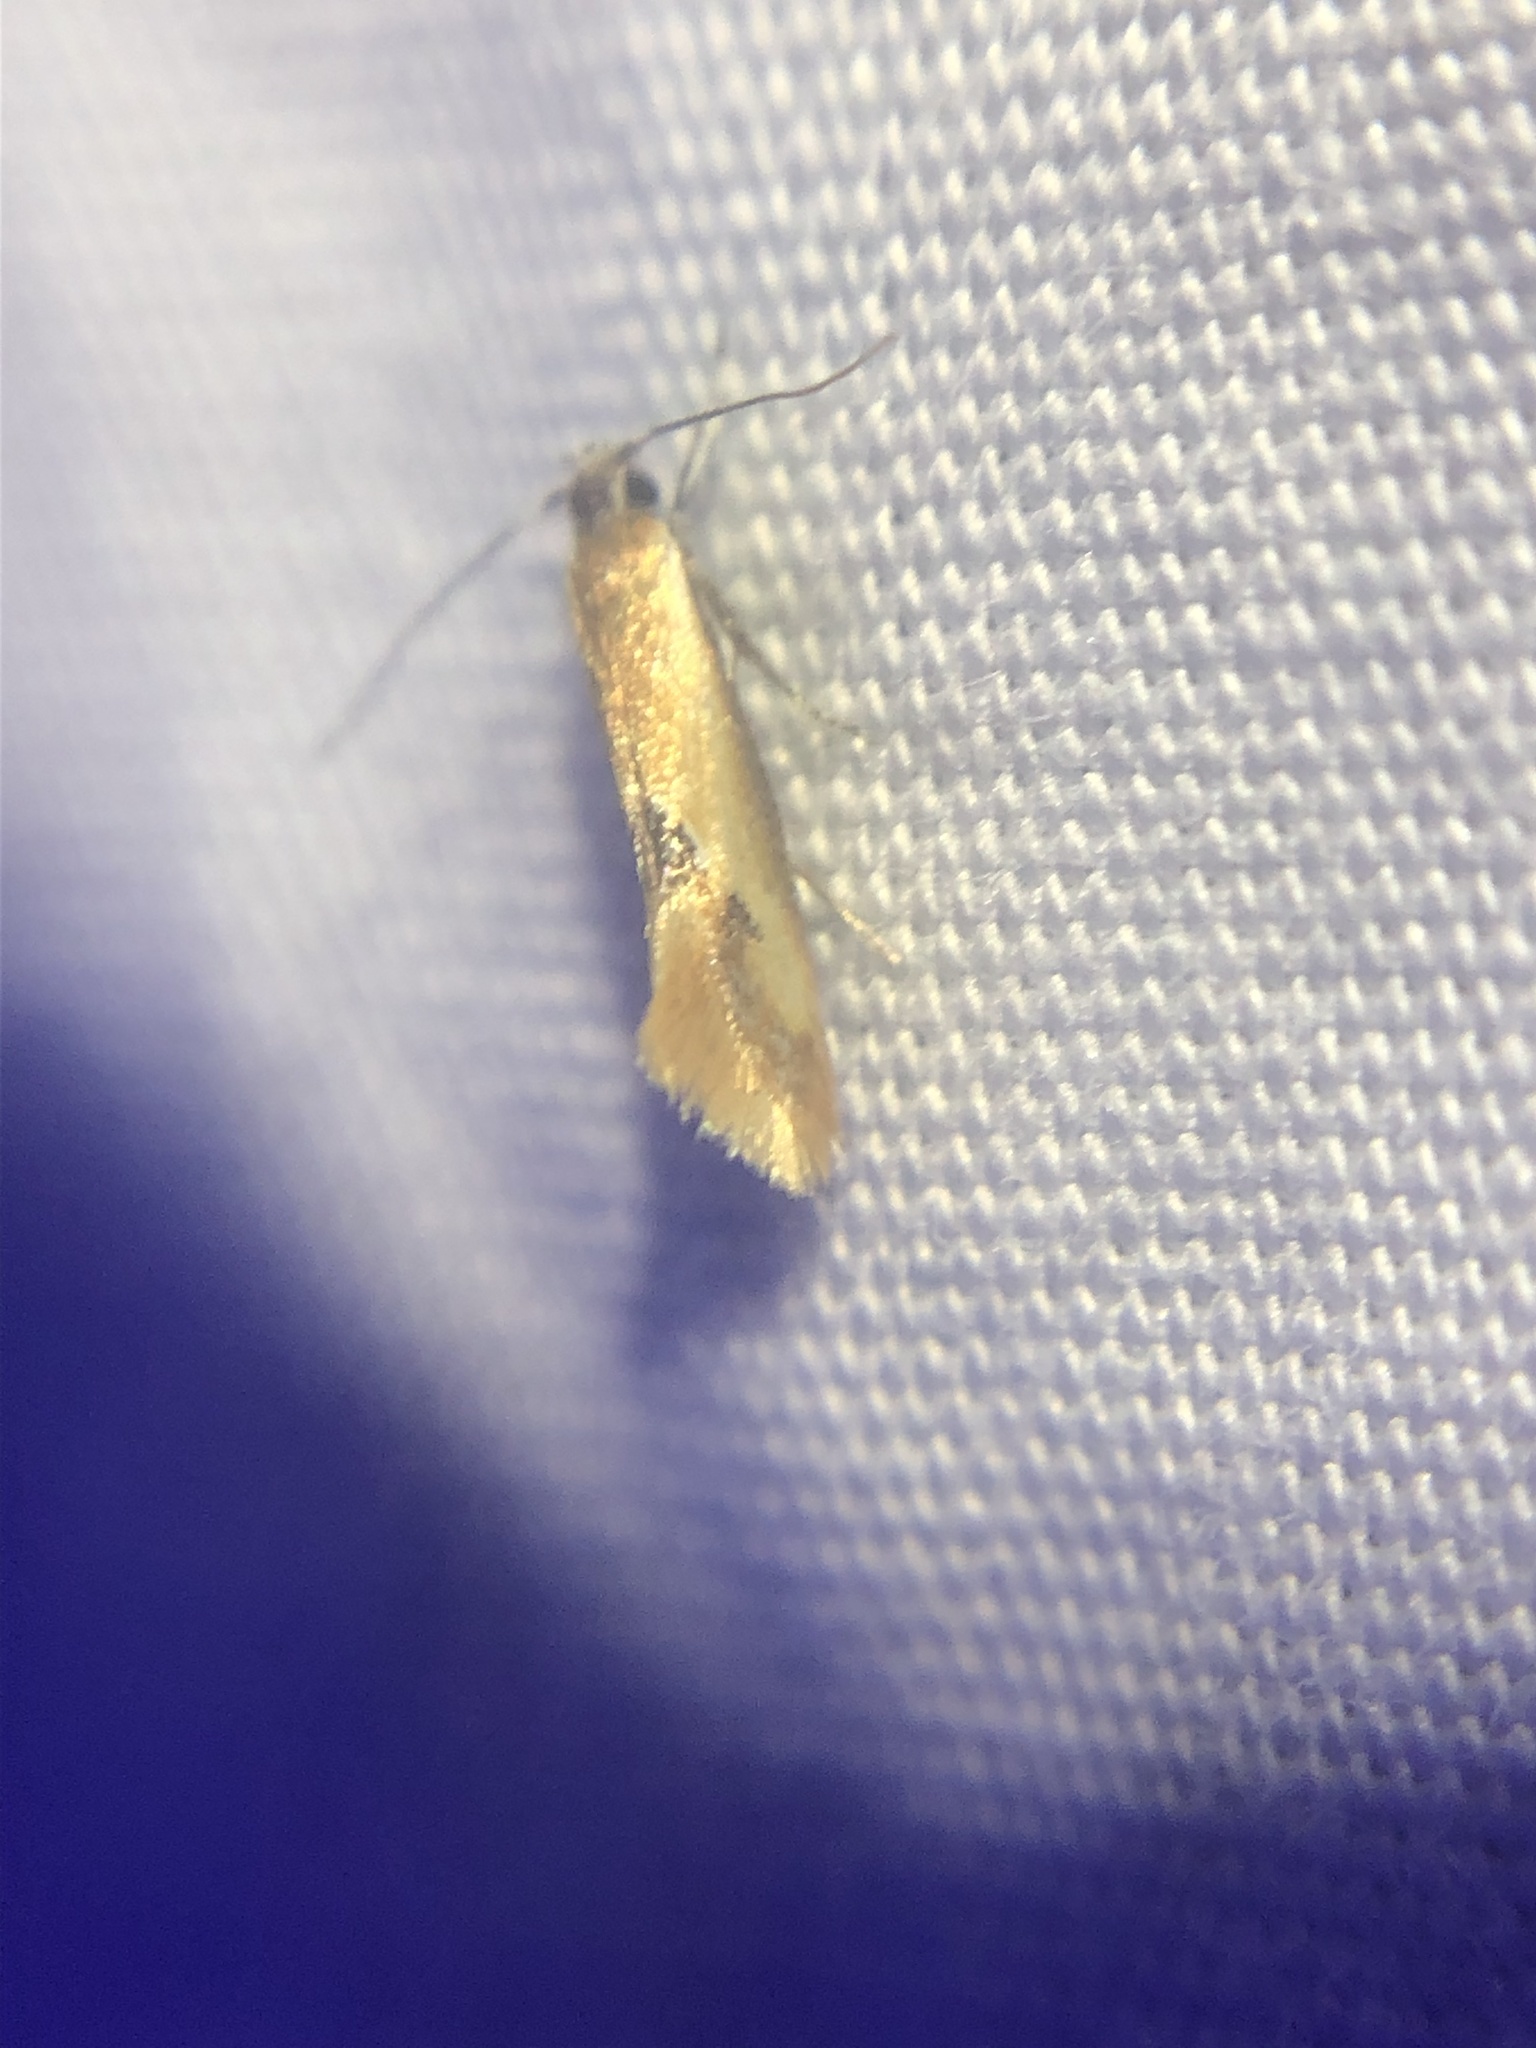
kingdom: Animalia
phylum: Arthropoda
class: Insecta
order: Lepidoptera
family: Oecophoridae
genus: Batia
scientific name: Batia lunaris
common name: Moth
